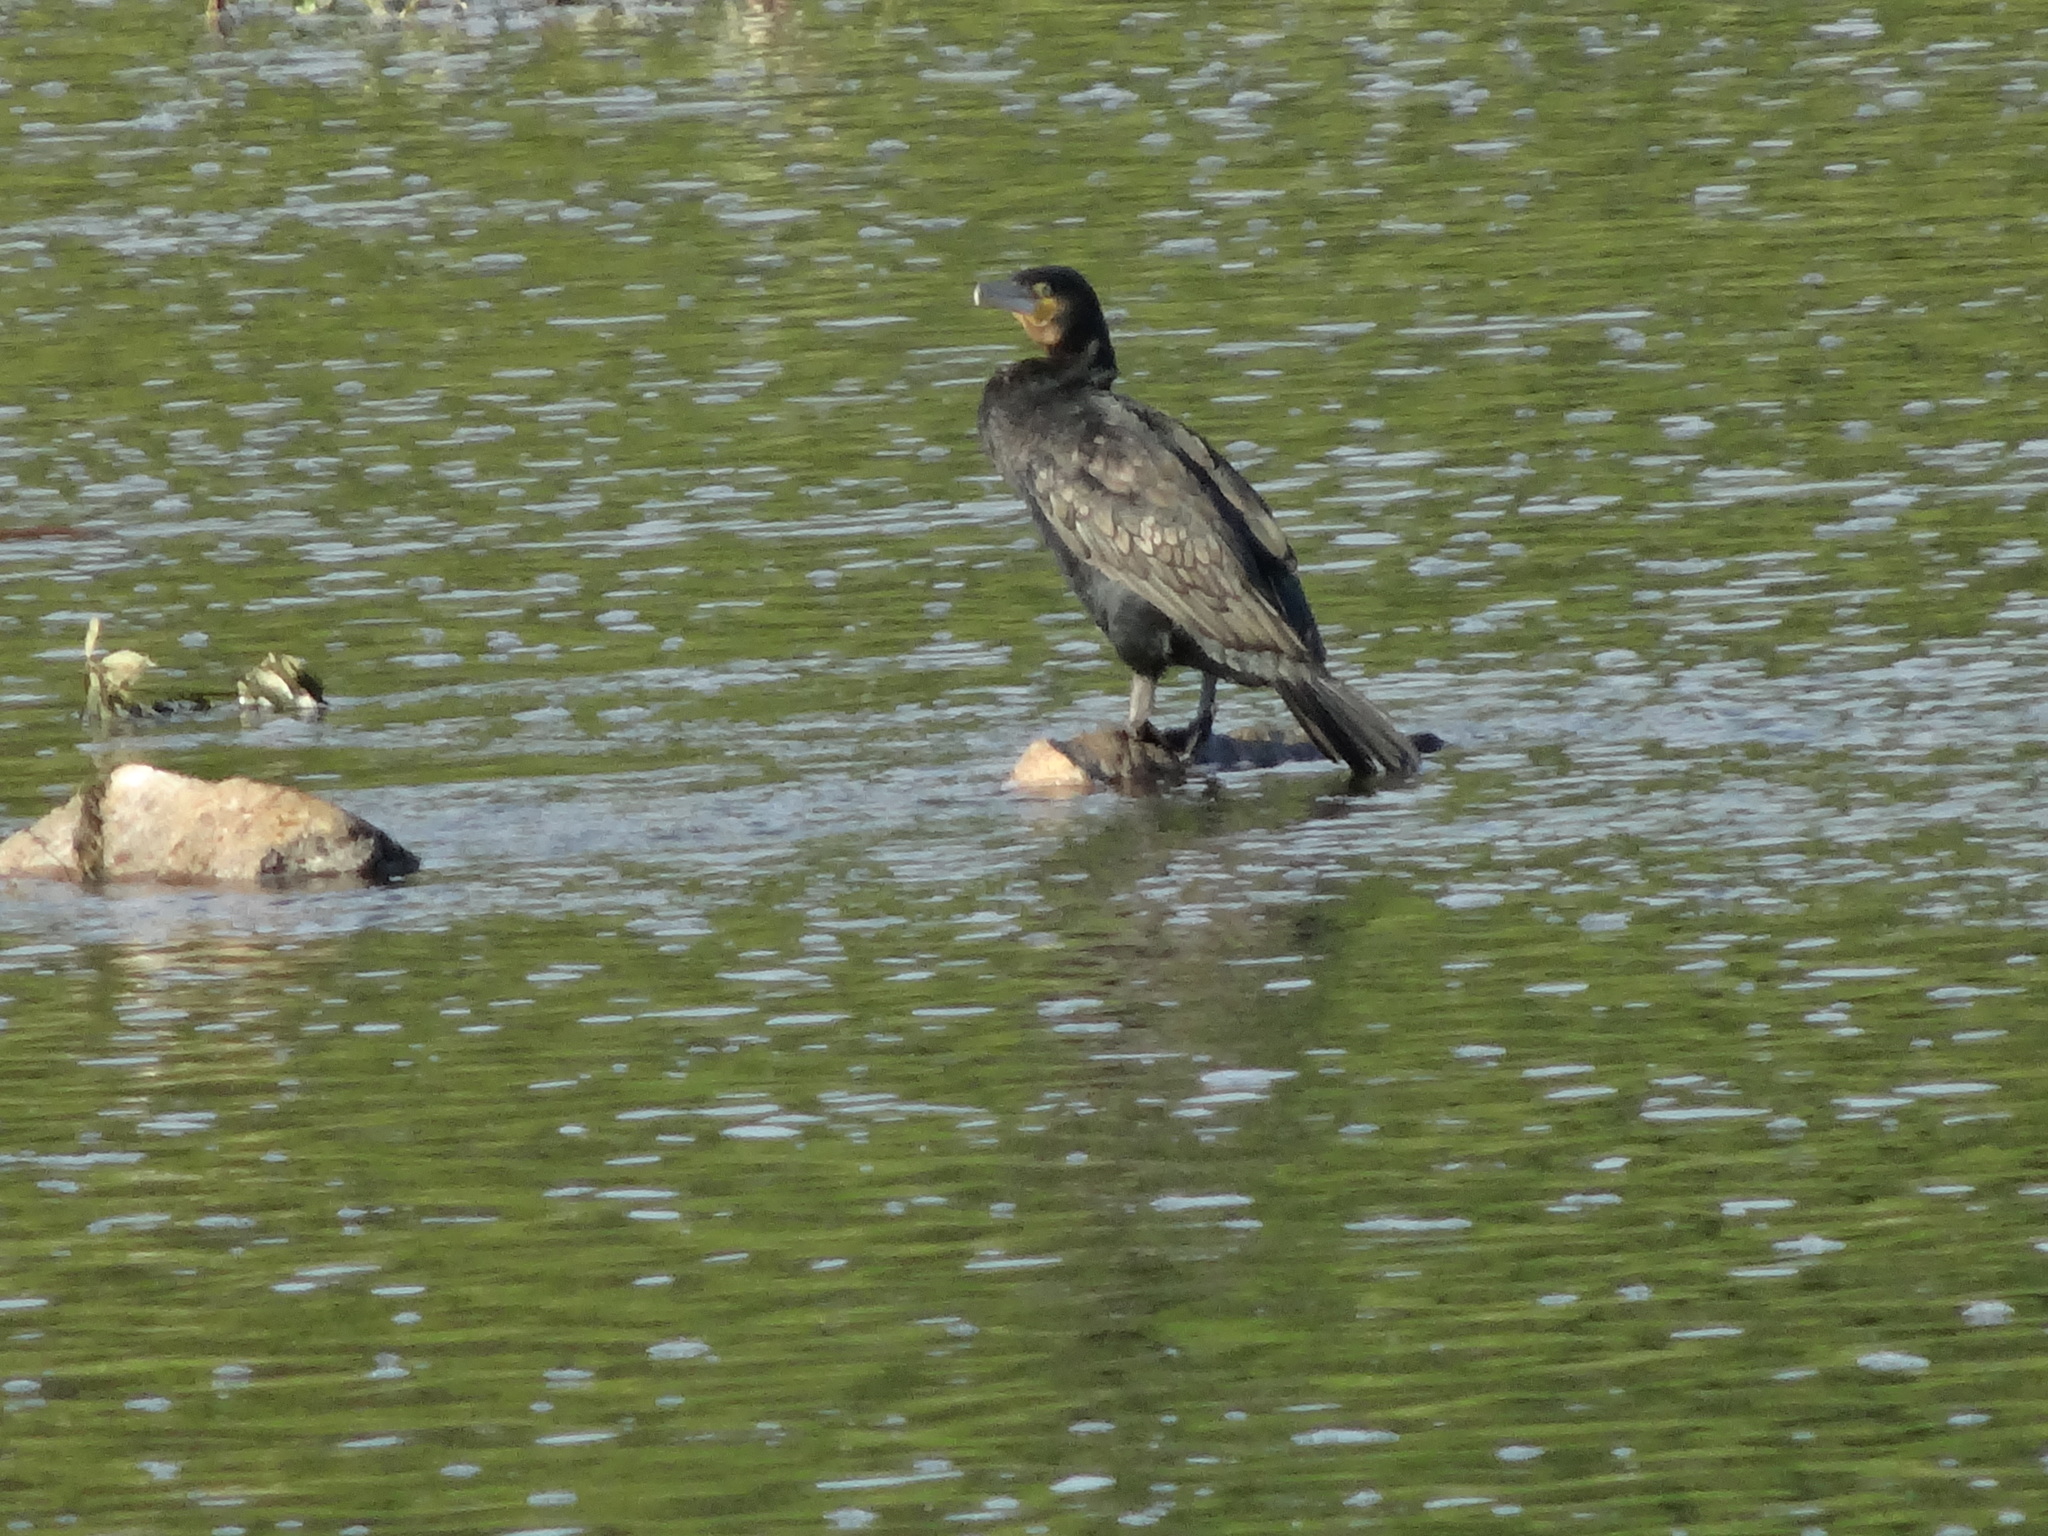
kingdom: Animalia
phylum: Chordata
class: Aves
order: Suliformes
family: Phalacrocoracidae
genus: Phalacrocorax
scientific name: Phalacrocorax carbo
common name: Great cormorant
